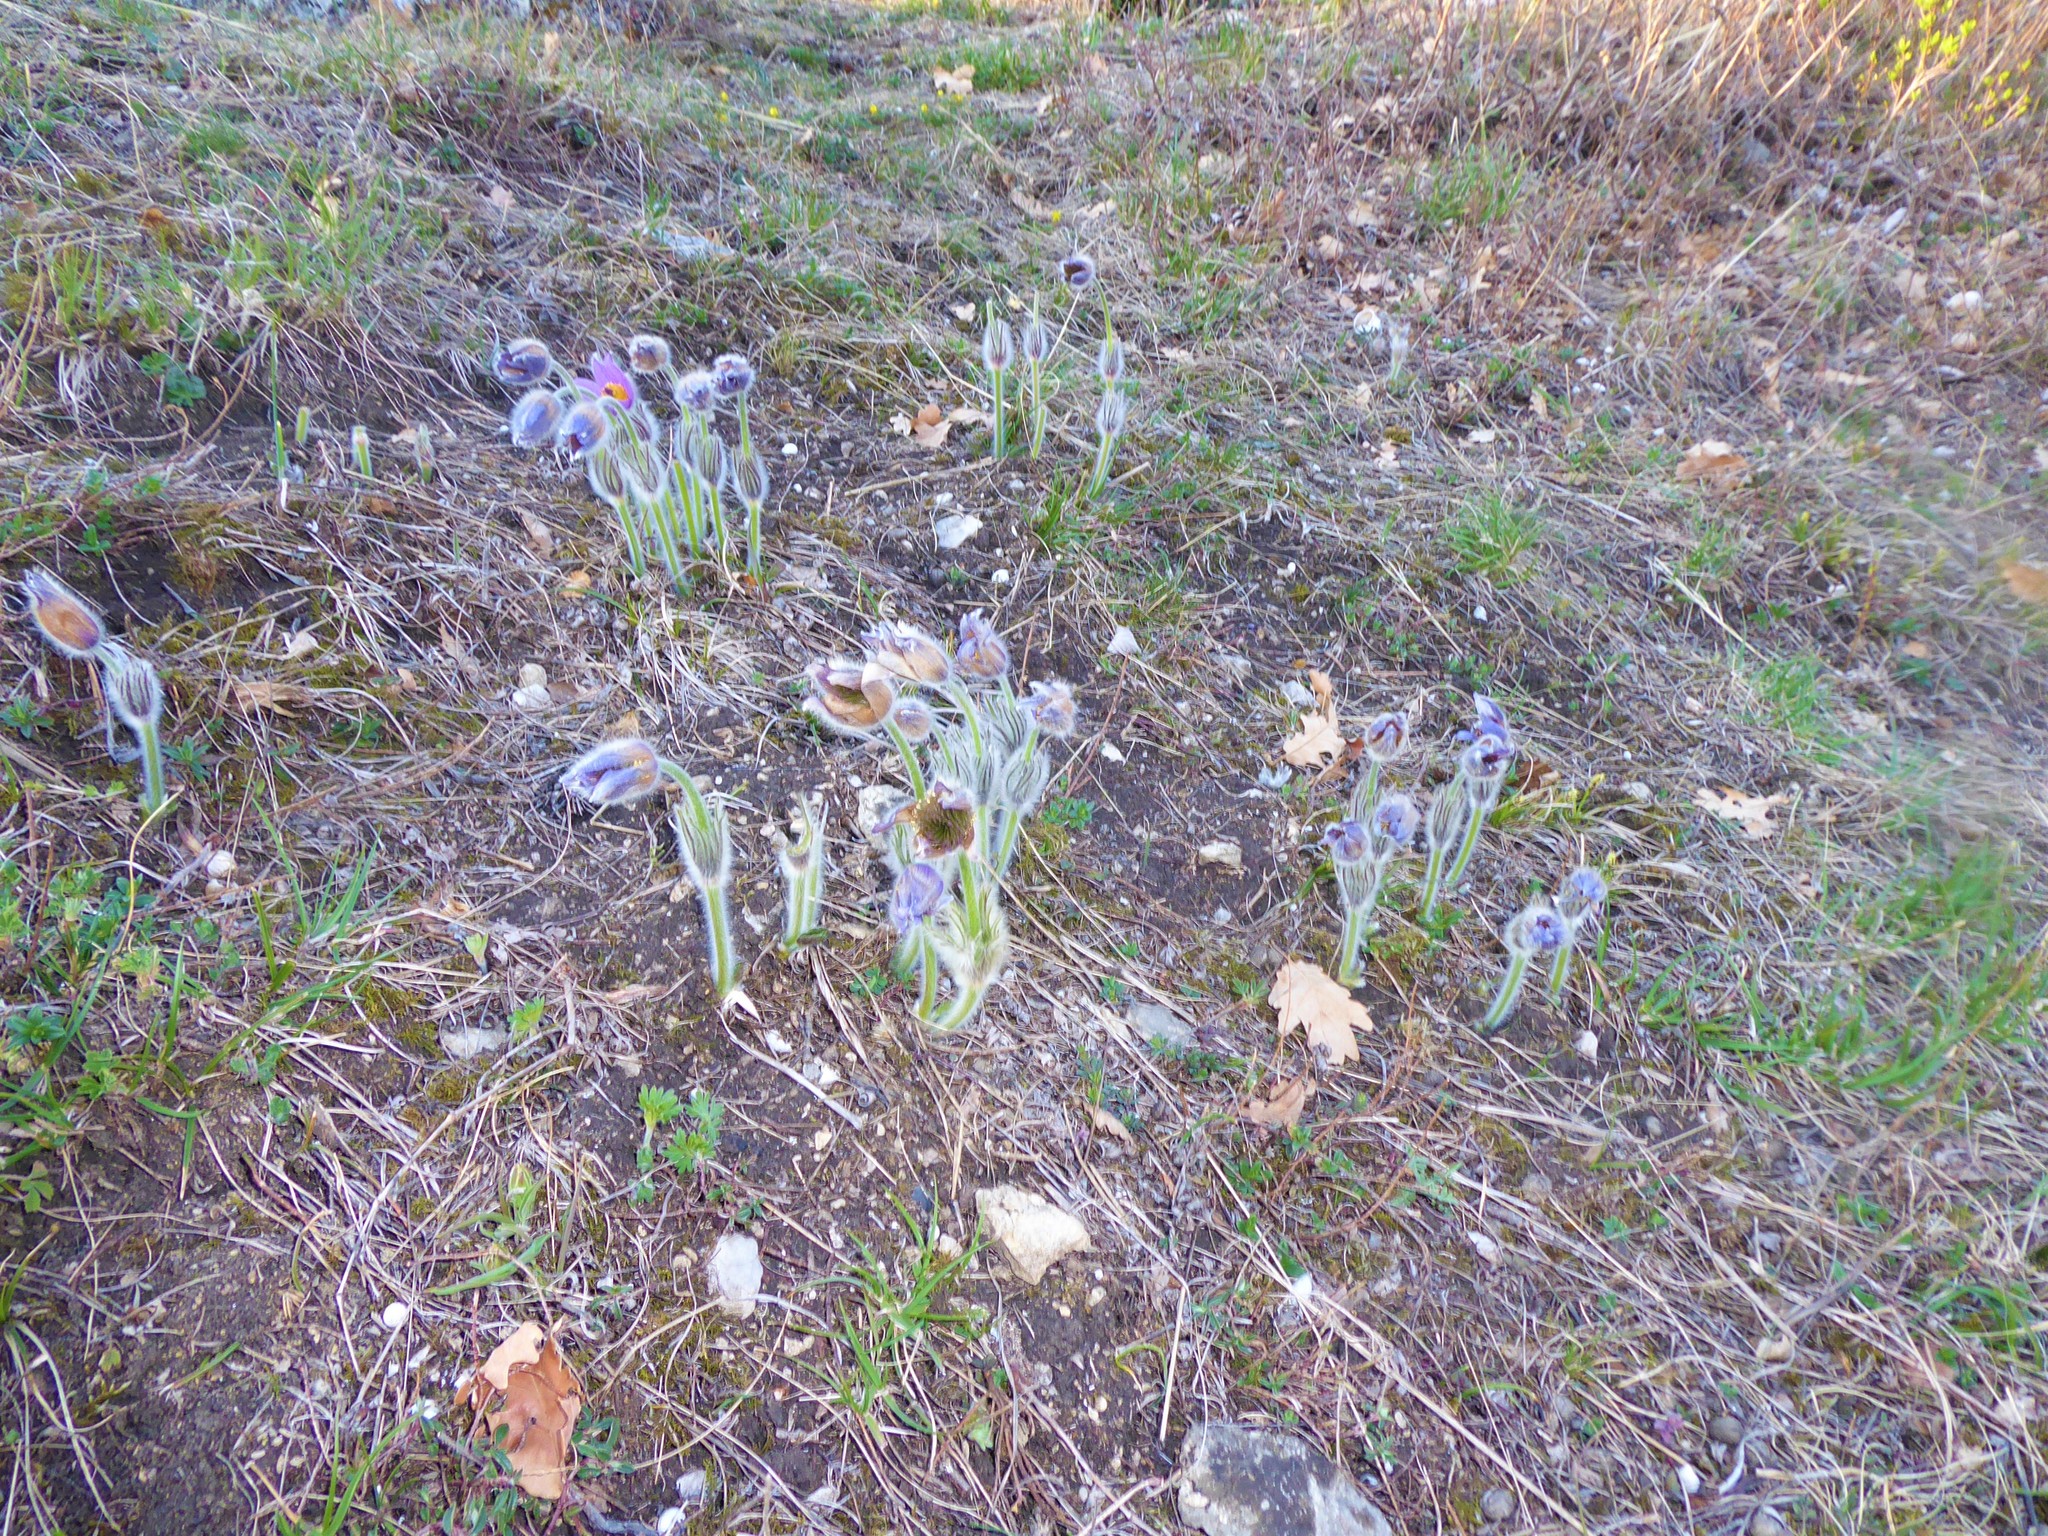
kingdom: Plantae
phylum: Tracheophyta
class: Magnoliopsida
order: Ranunculales
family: Ranunculaceae
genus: Pulsatilla
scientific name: Pulsatilla grandis
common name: Greater pasque flower
